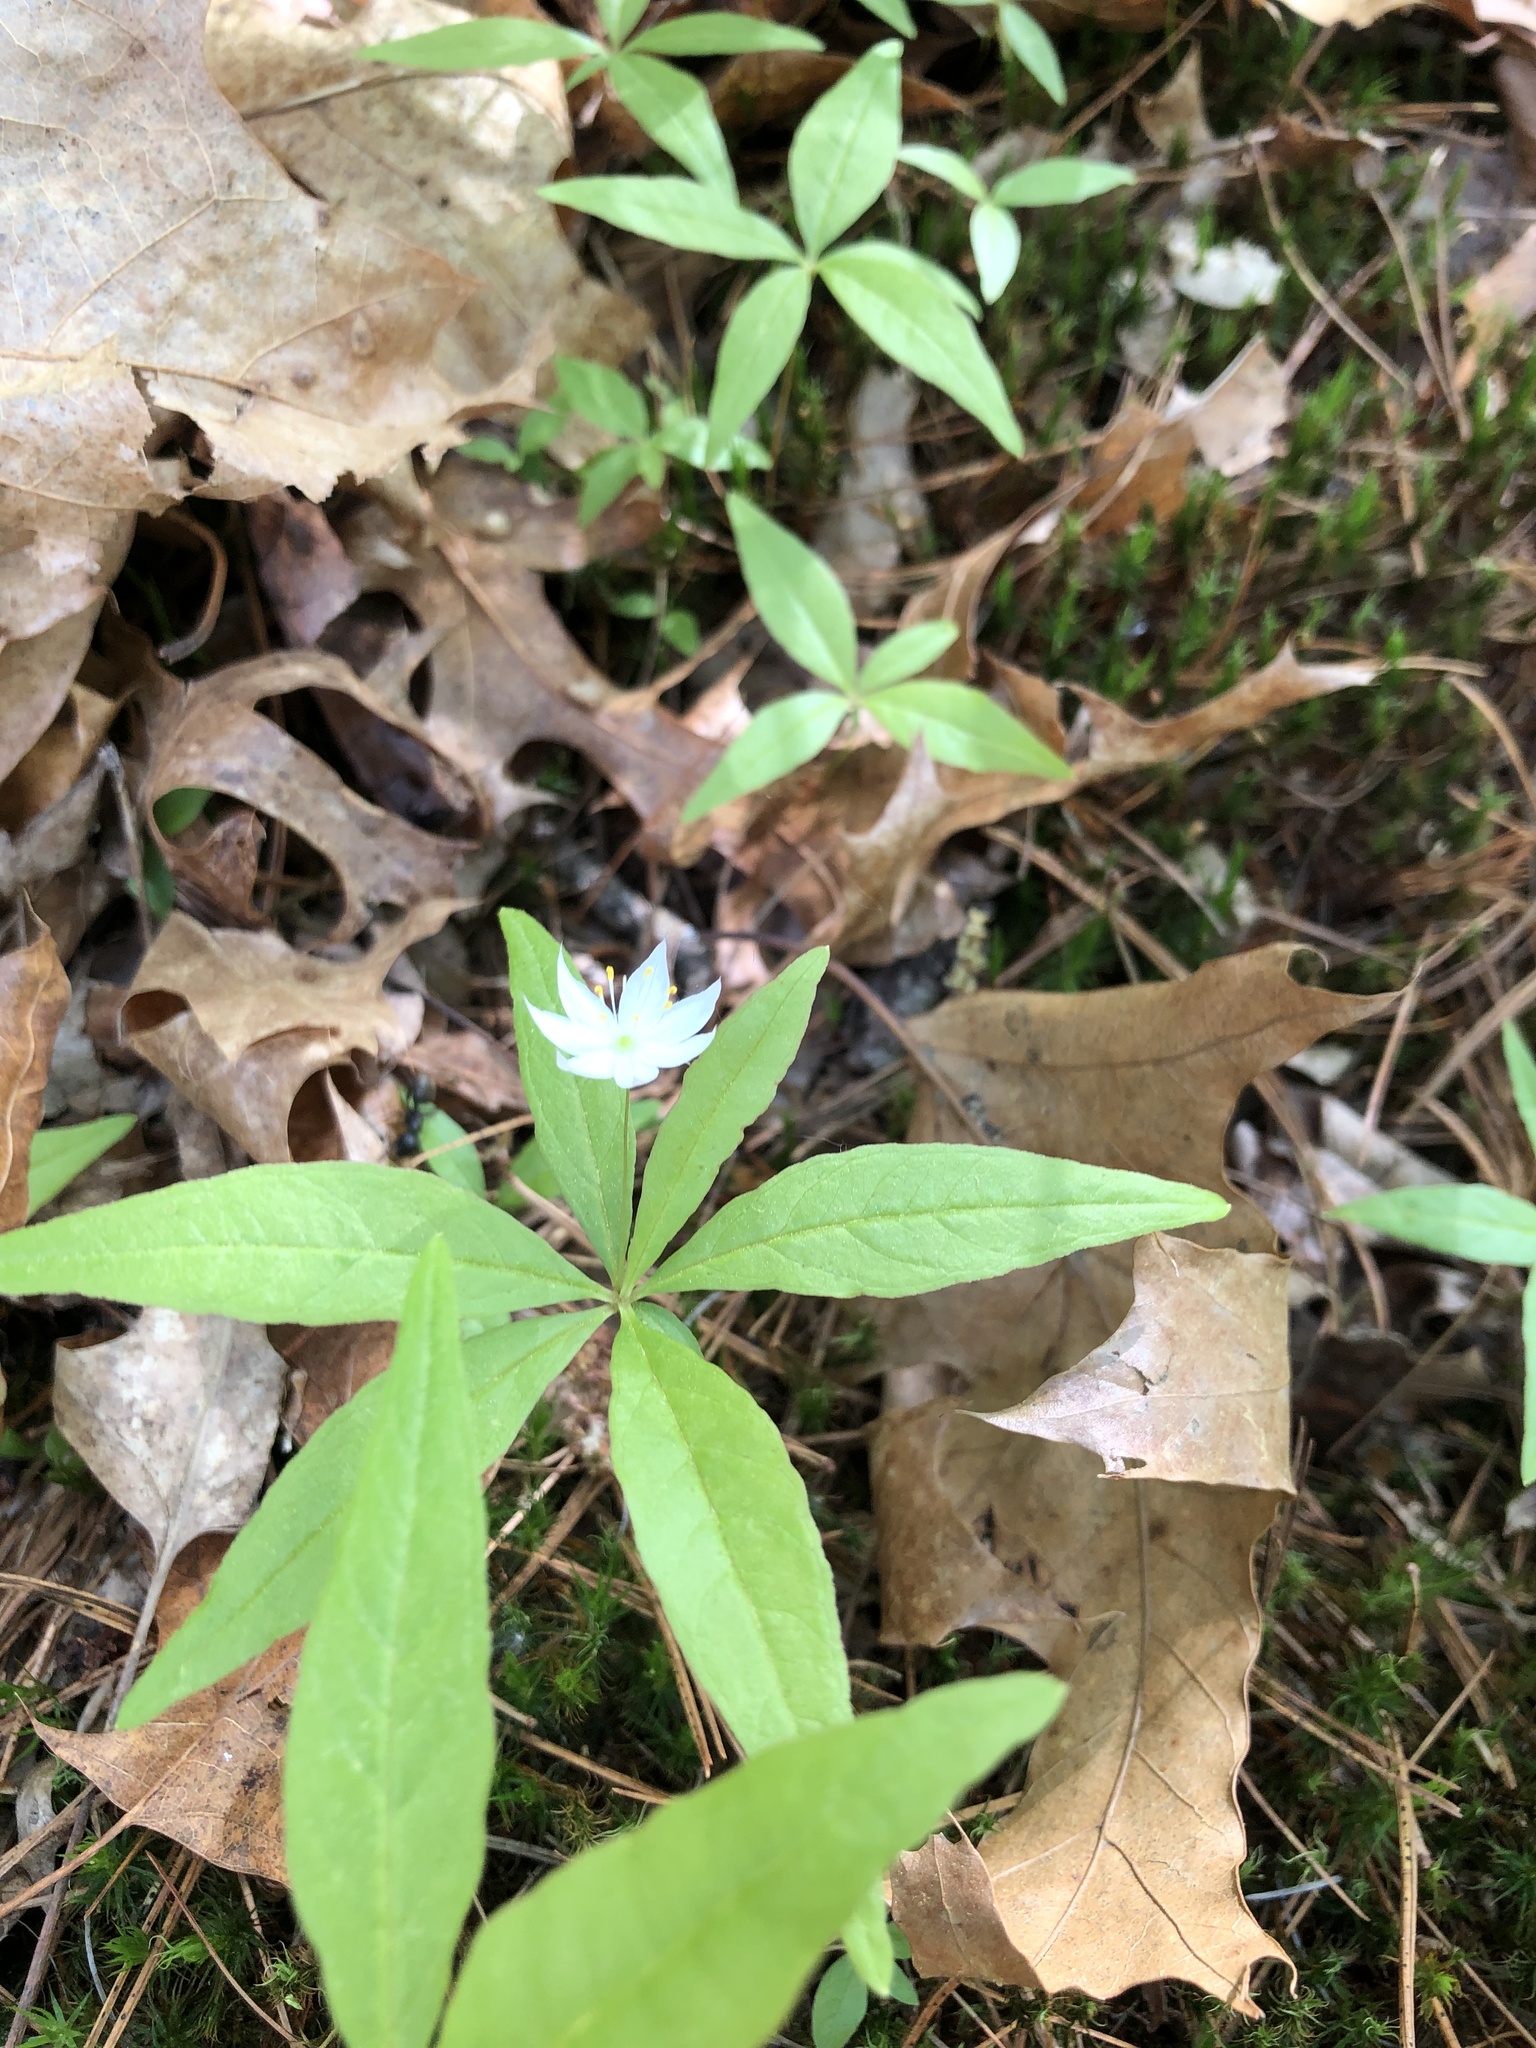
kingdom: Plantae
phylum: Tracheophyta
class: Magnoliopsida
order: Ericales
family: Primulaceae
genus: Lysimachia
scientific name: Lysimachia borealis
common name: American starflower
